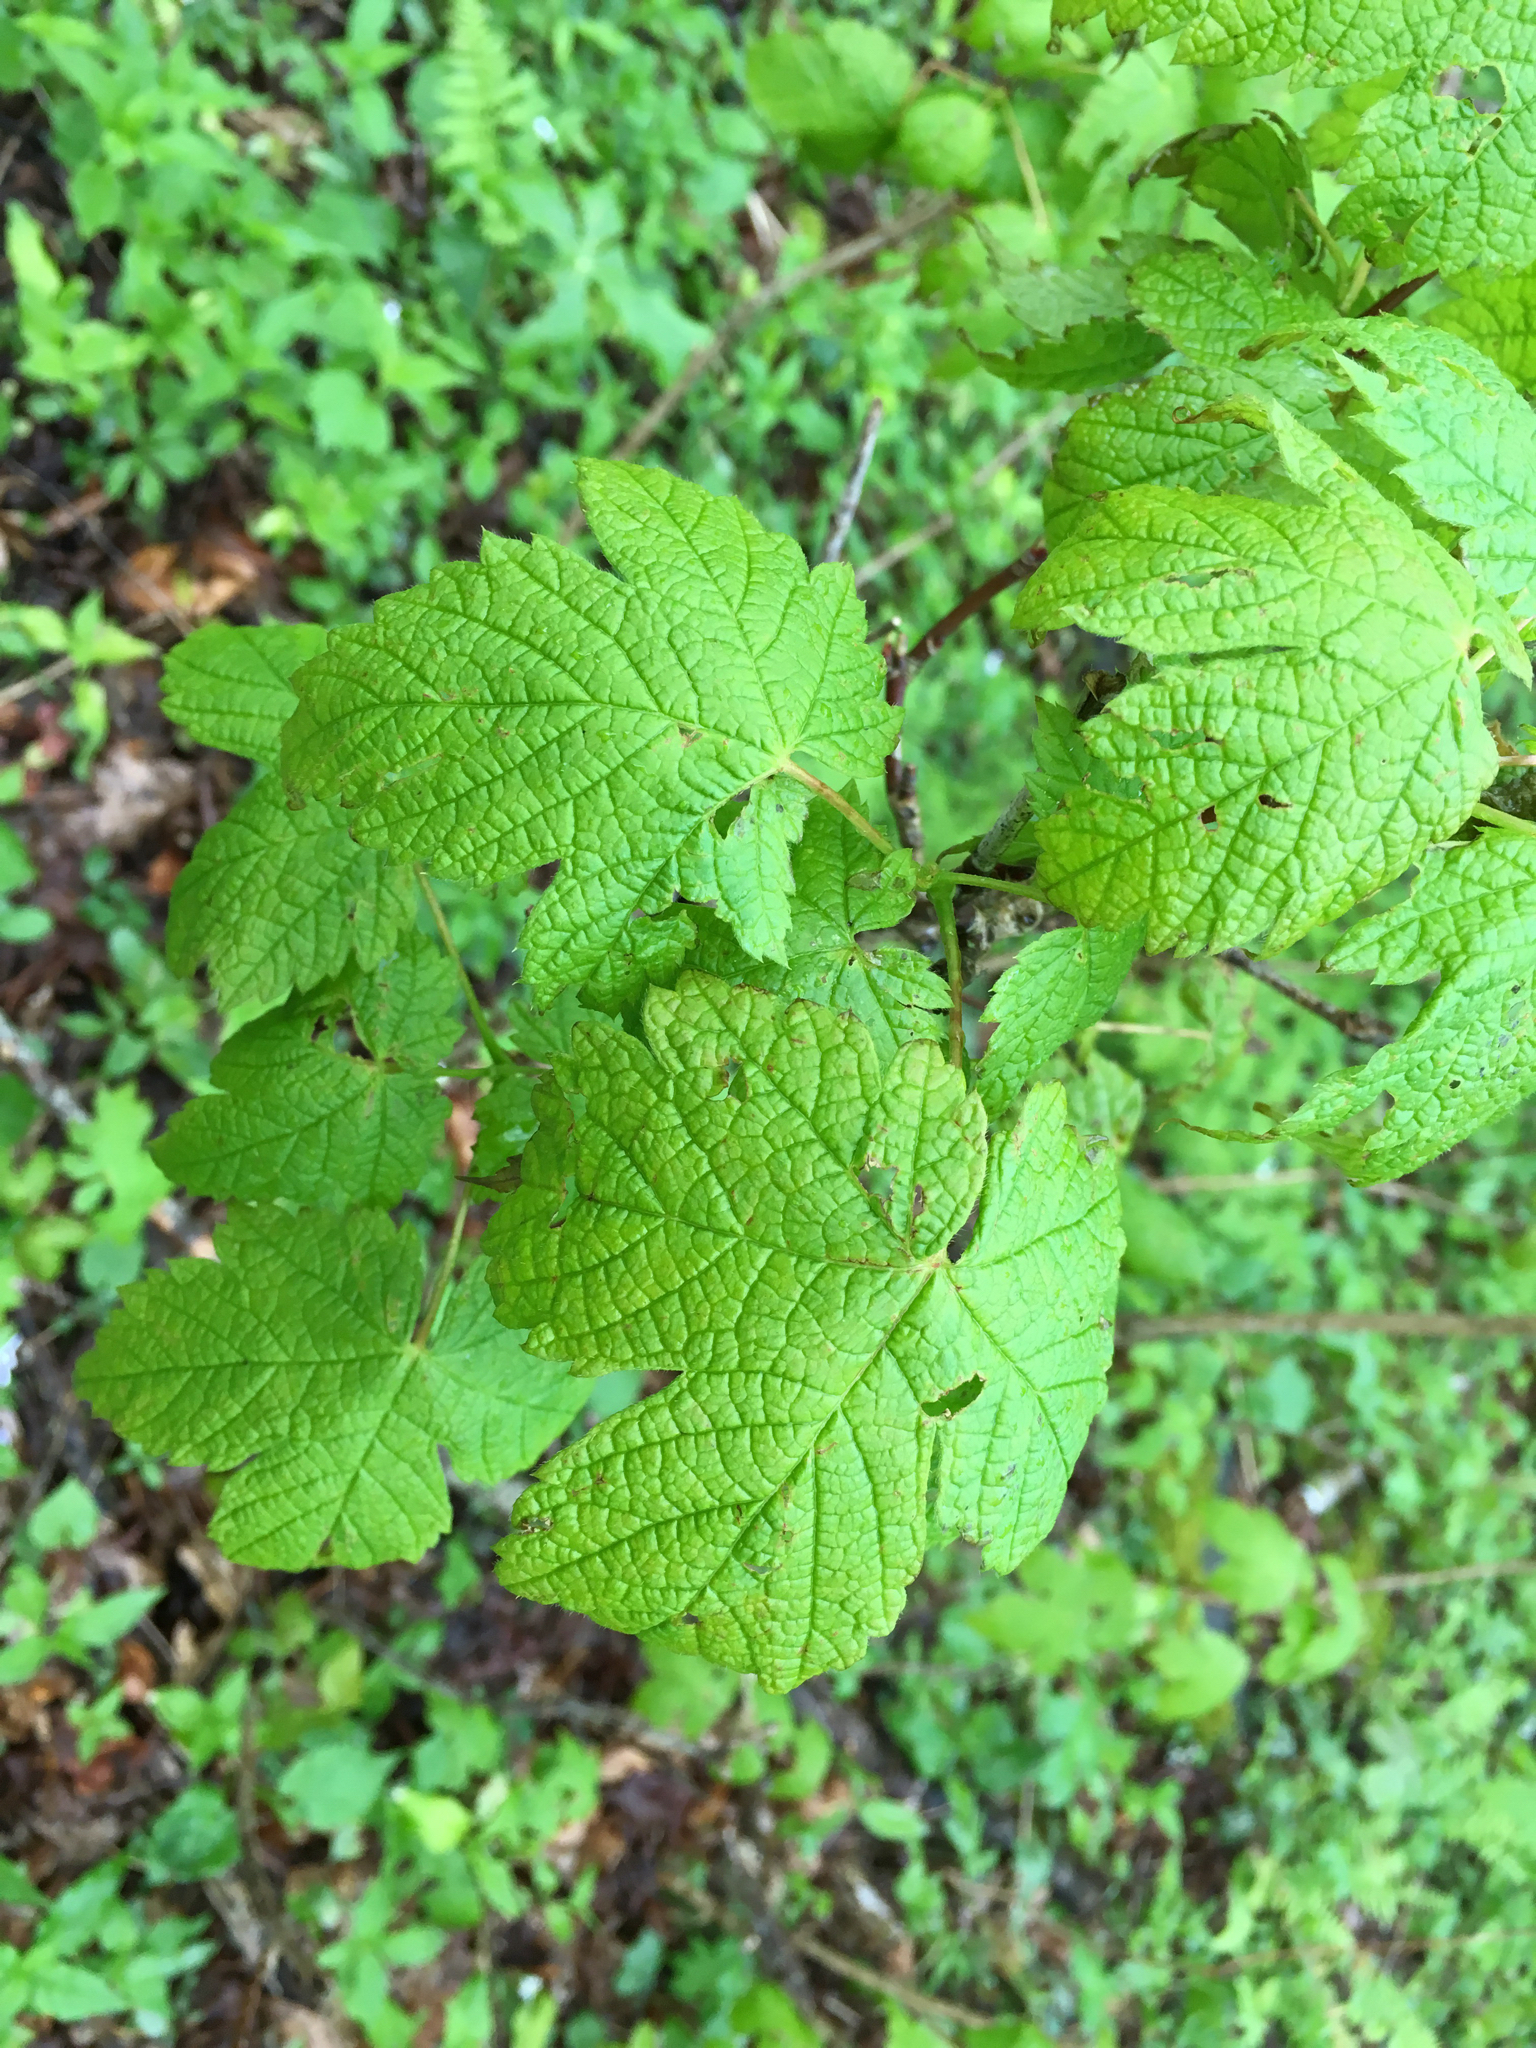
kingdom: Plantae
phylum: Tracheophyta
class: Magnoliopsida
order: Sapindales
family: Sapindaceae
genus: Acer
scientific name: Acer spicatum
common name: Mountain maple
